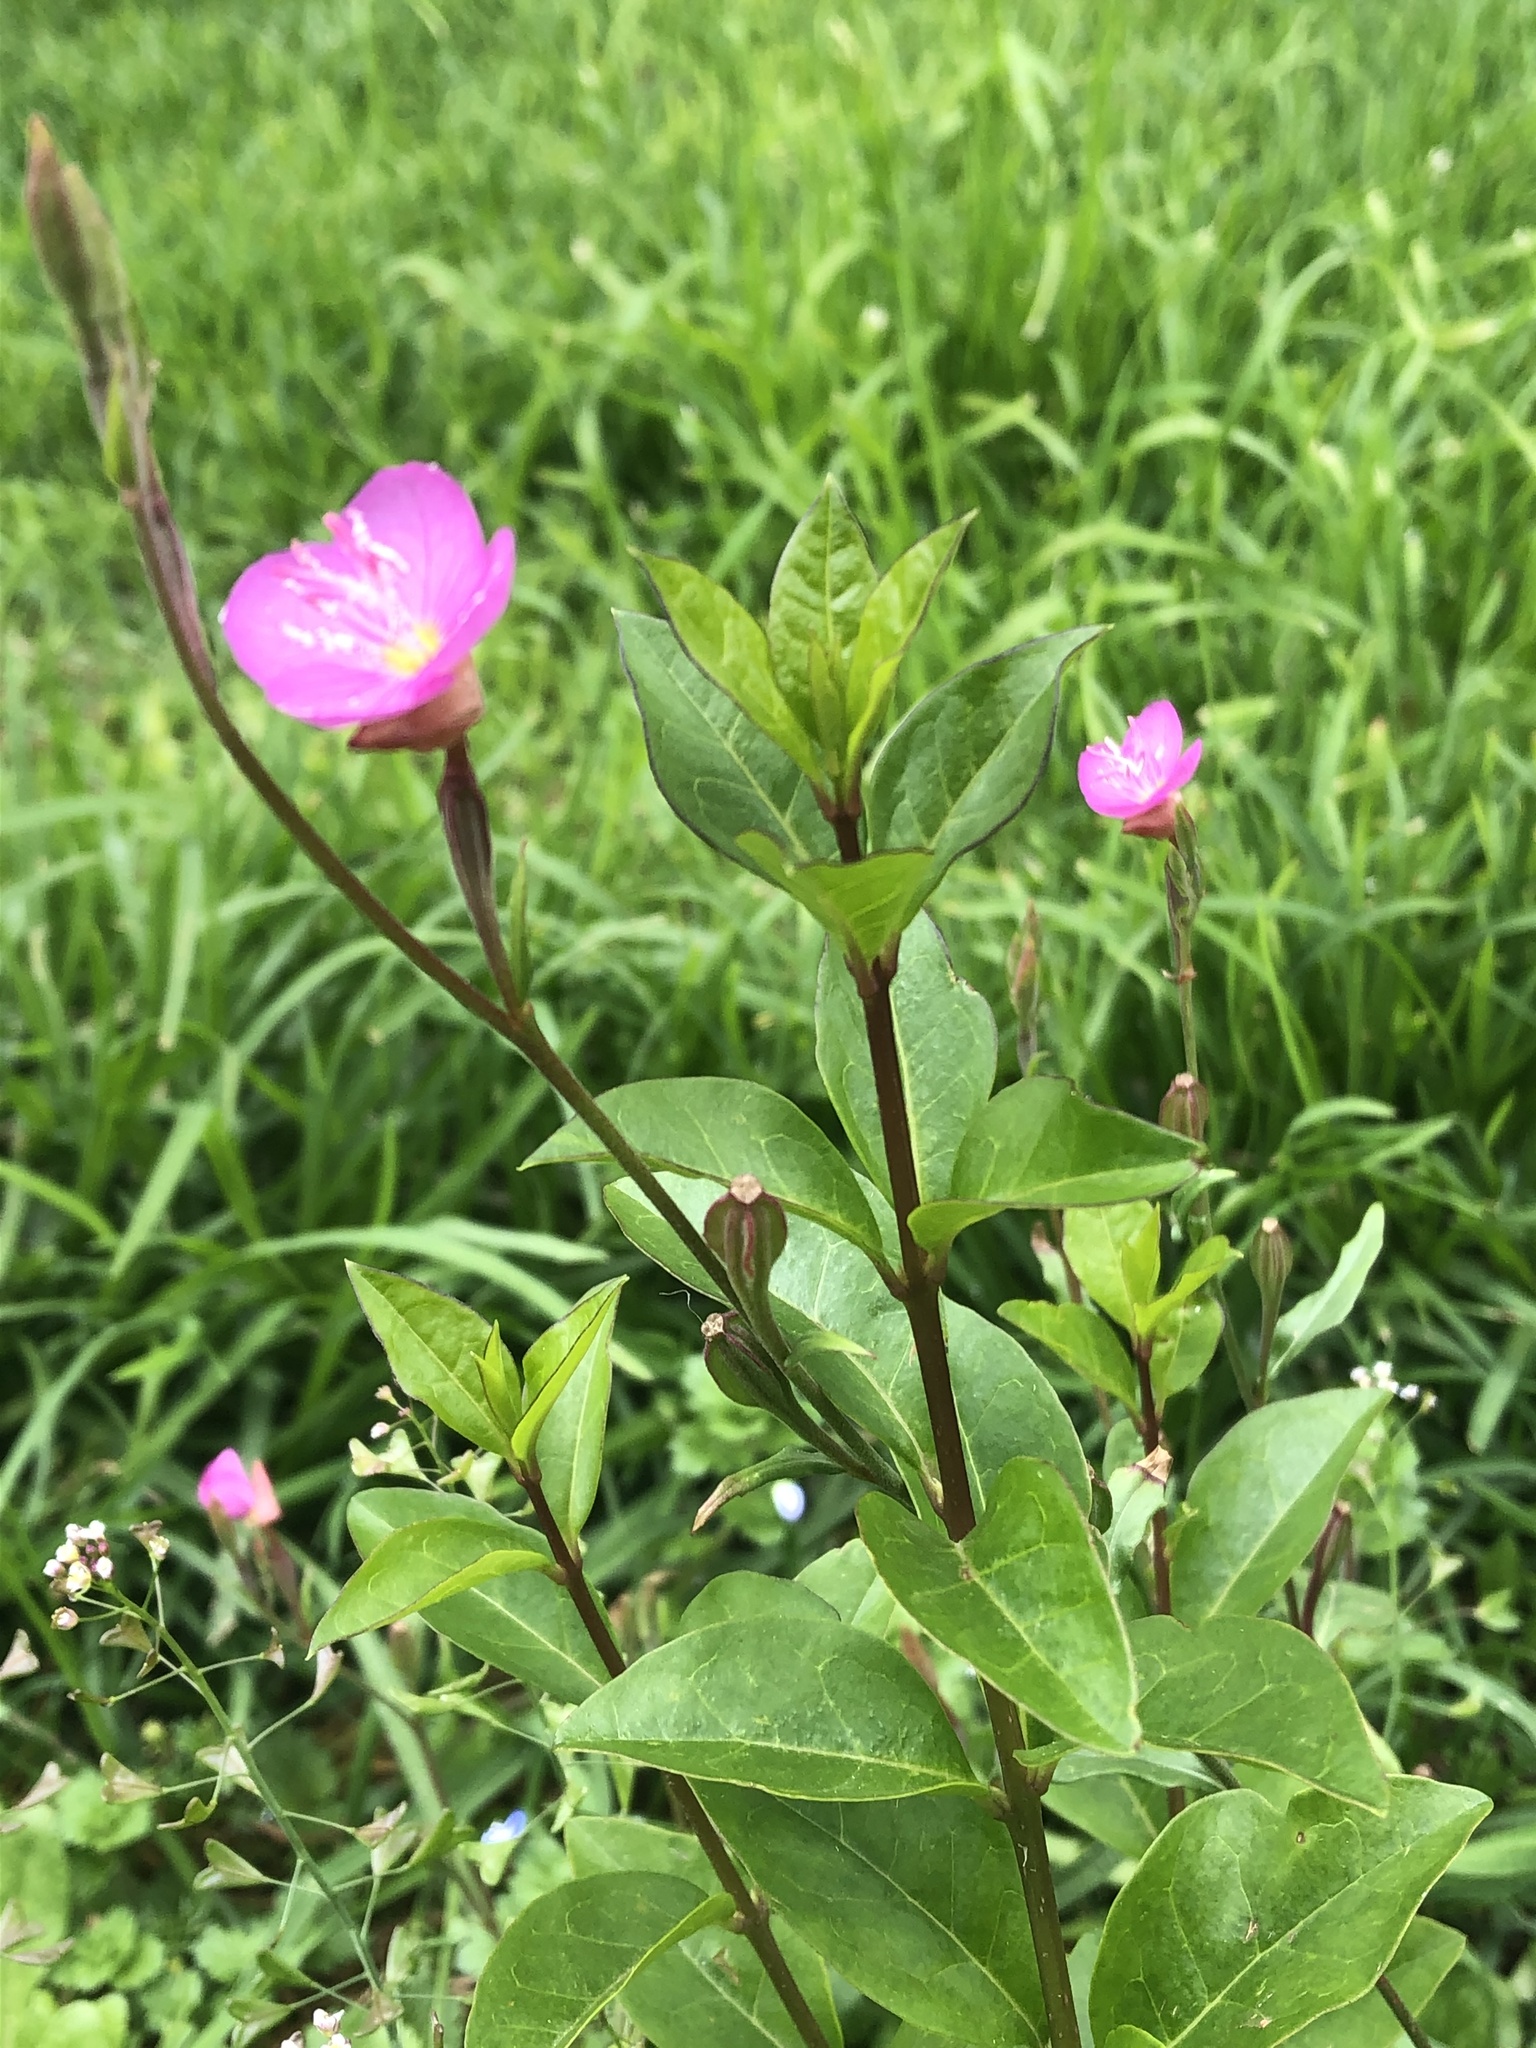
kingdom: Plantae
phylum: Tracheophyta
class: Magnoliopsida
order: Myrtales
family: Onagraceae
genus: Oenothera
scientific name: Oenothera rosea
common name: Rosy evening-primrose
